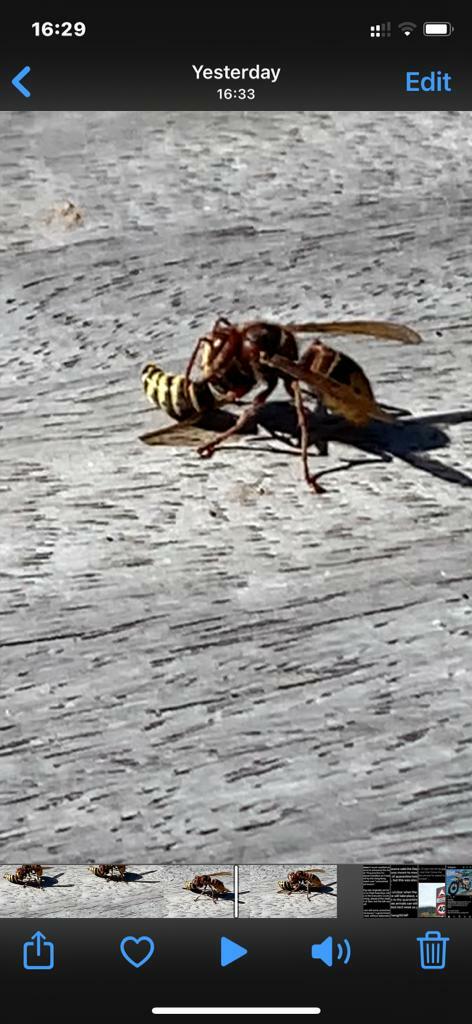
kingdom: Animalia
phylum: Arthropoda
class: Insecta
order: Hymenoptera
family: Vespidae
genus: Vespa
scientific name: Vespa crabro
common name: Hornet
